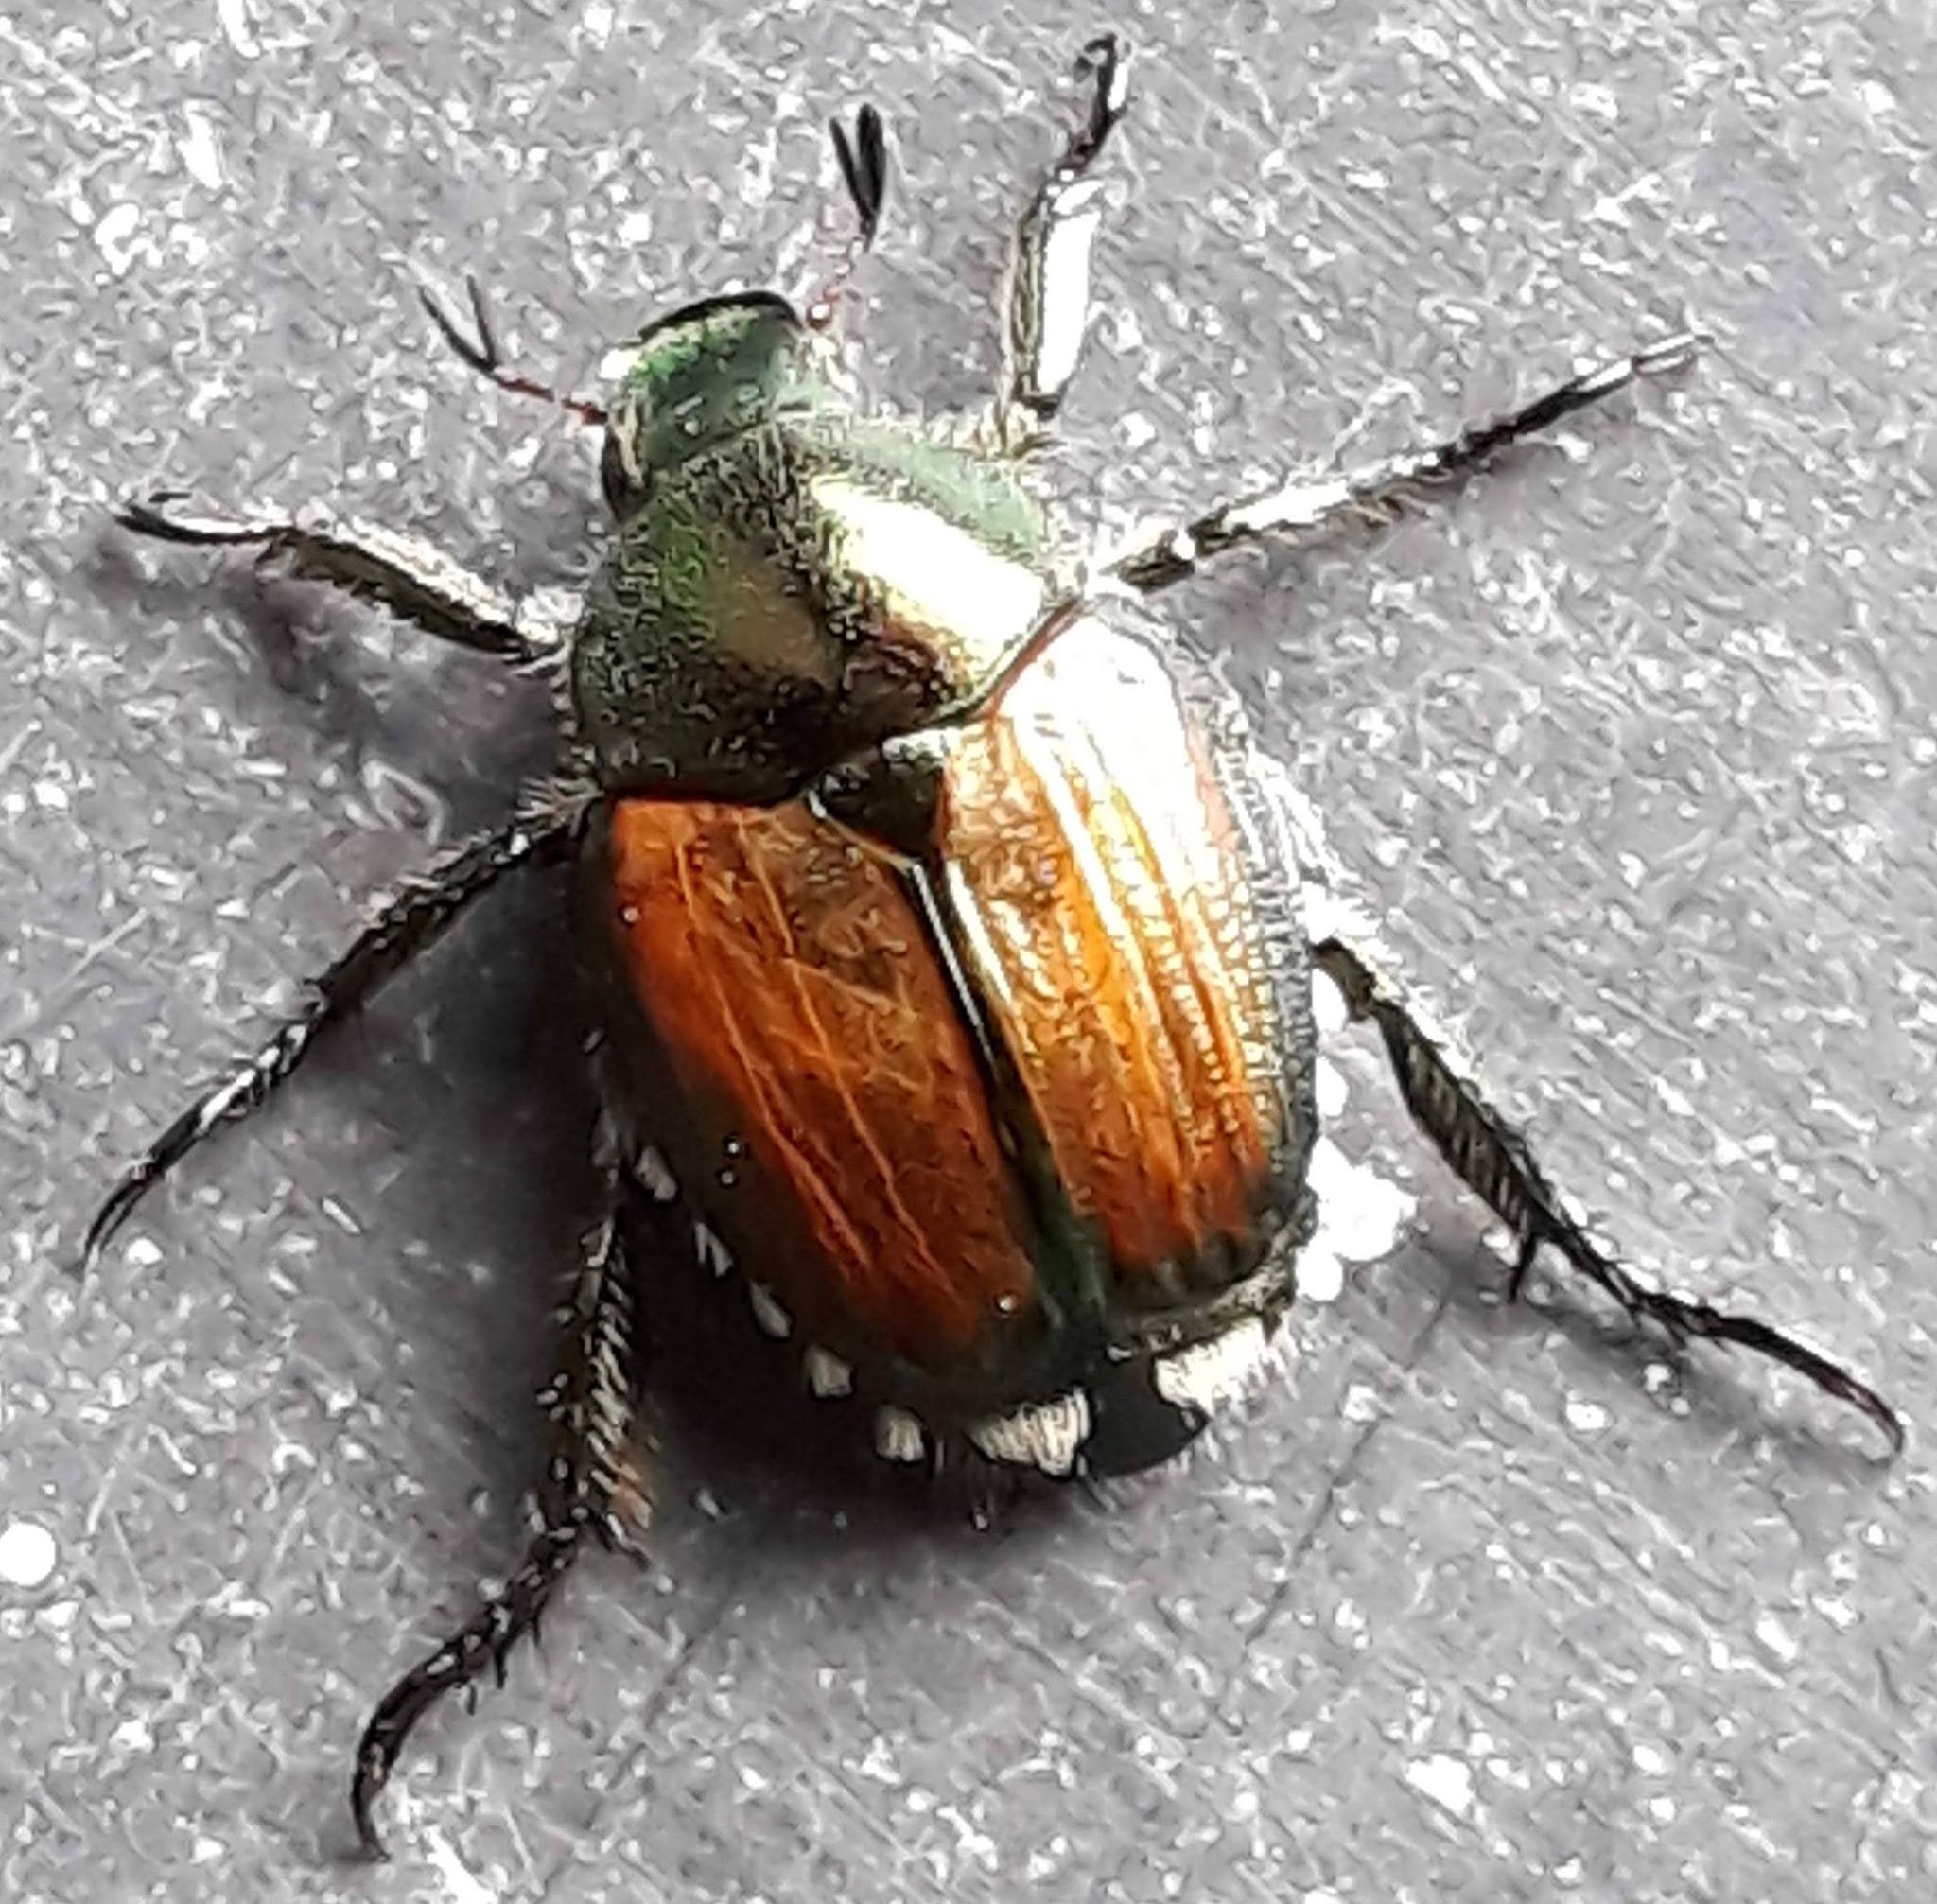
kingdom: Animalia
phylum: Arthropoda
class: Insecta
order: Coleoptera
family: Scarabaeidae
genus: Popillia
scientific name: Popillia japonica
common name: Japanese beetle
